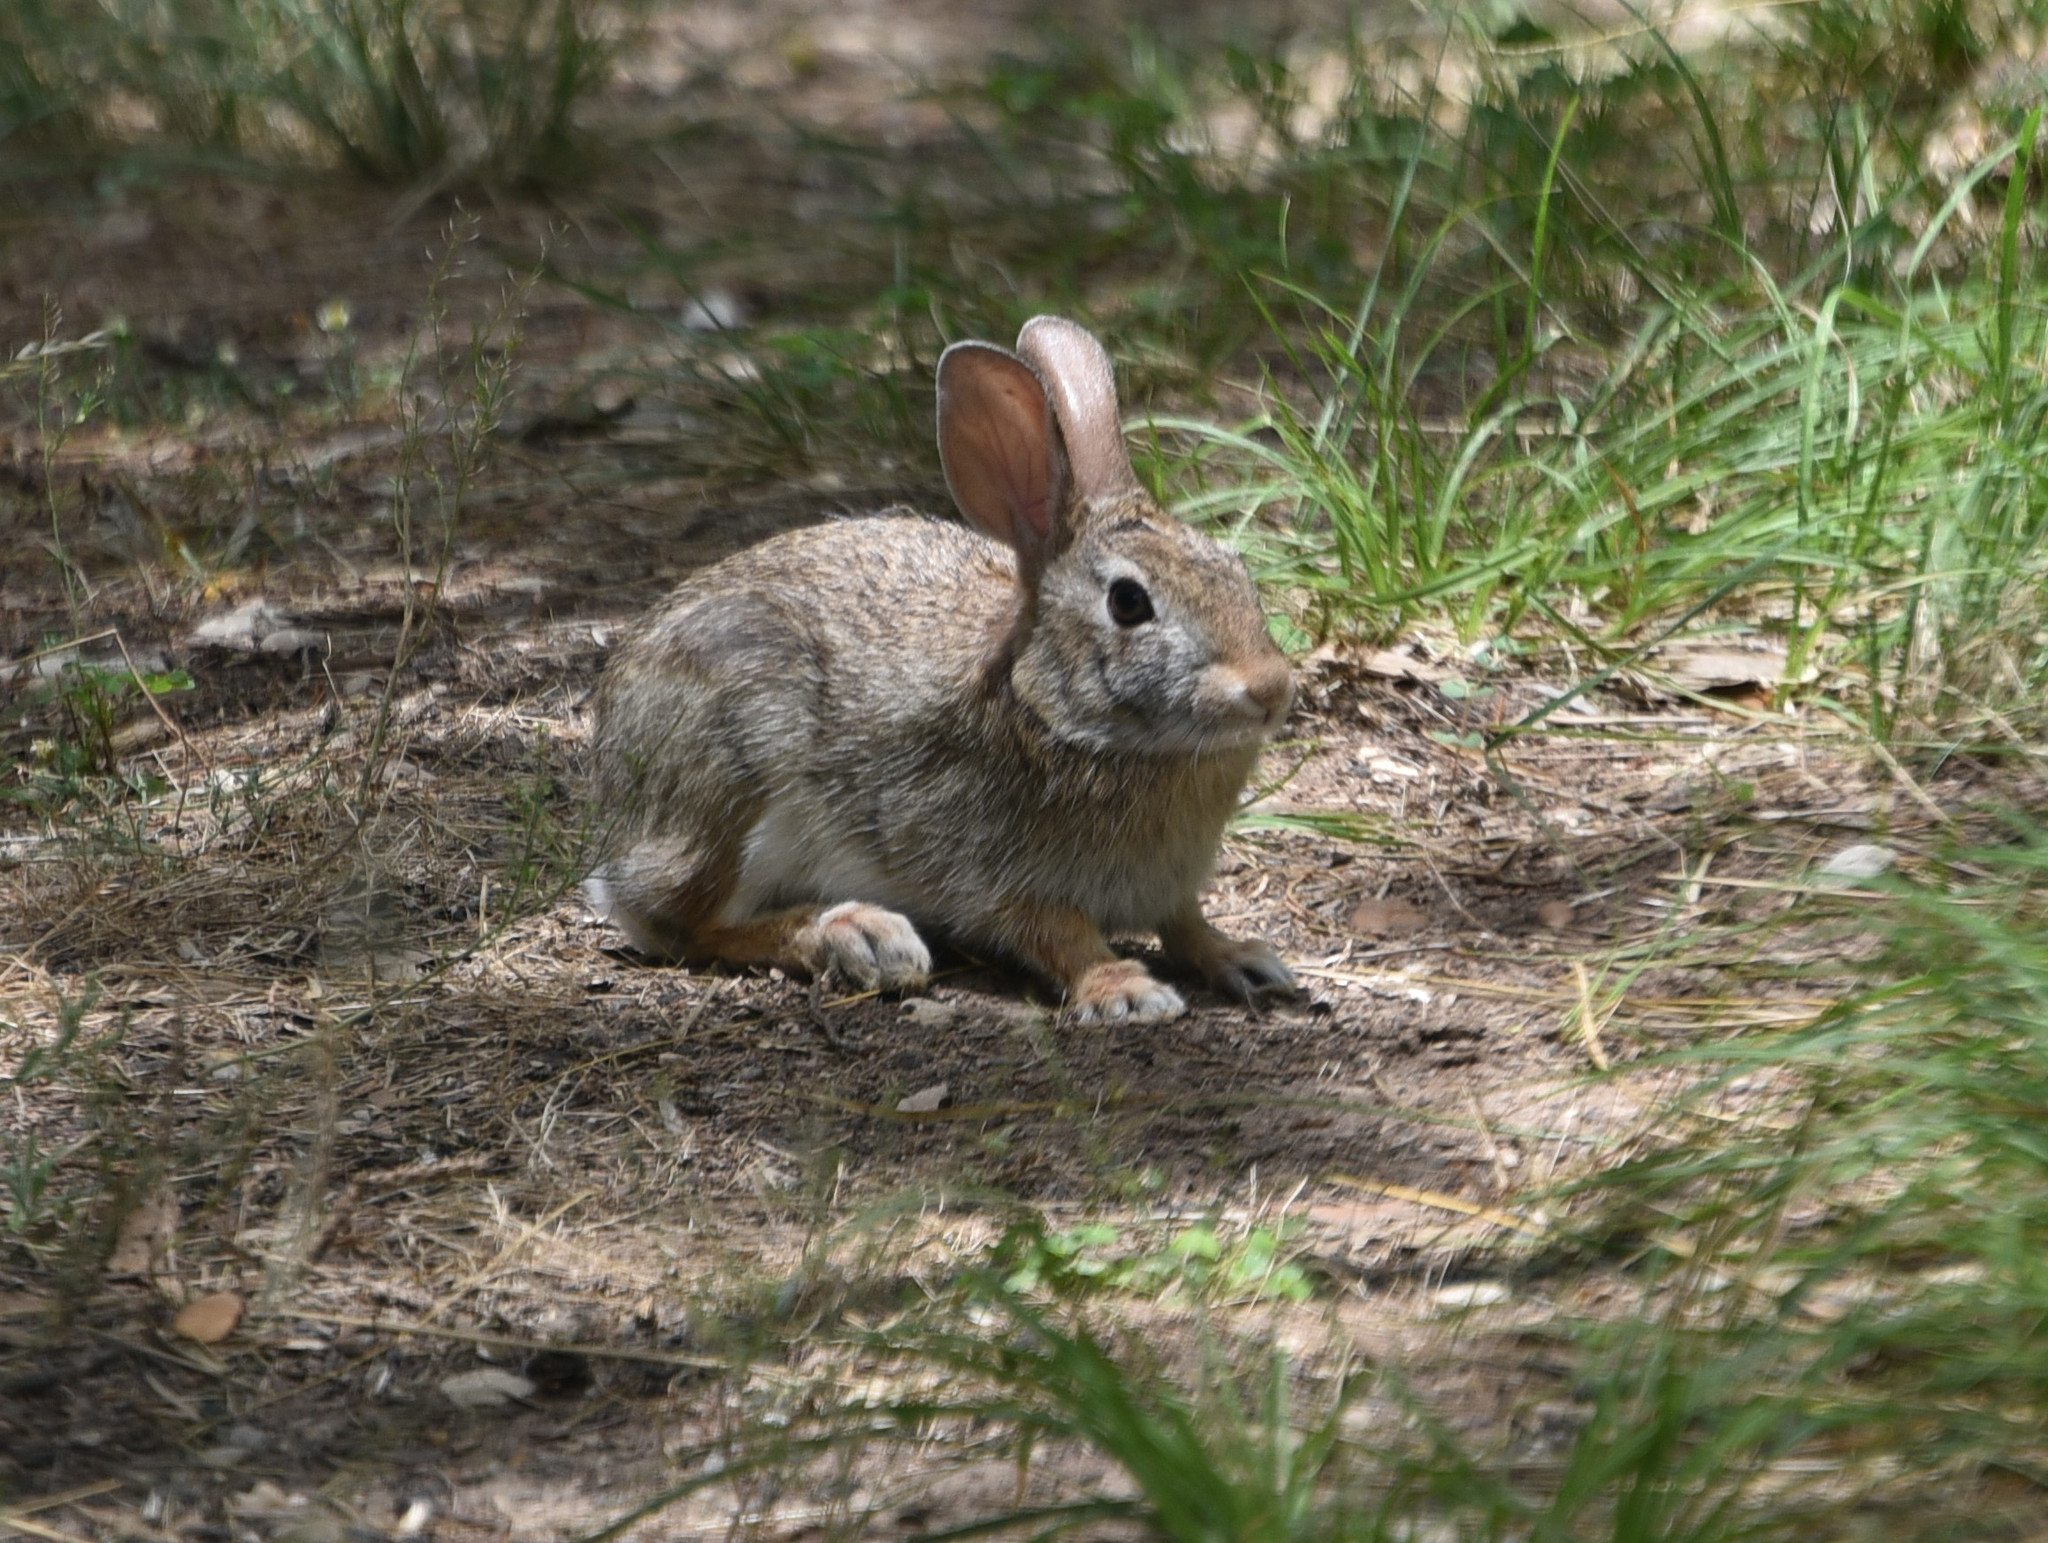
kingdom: Animalia
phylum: Chordata
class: Mammalia
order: Lagomorpha
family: Leporidae
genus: Sylvilagus
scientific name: Sylvilagus floridanus
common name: Eastern cottontail
